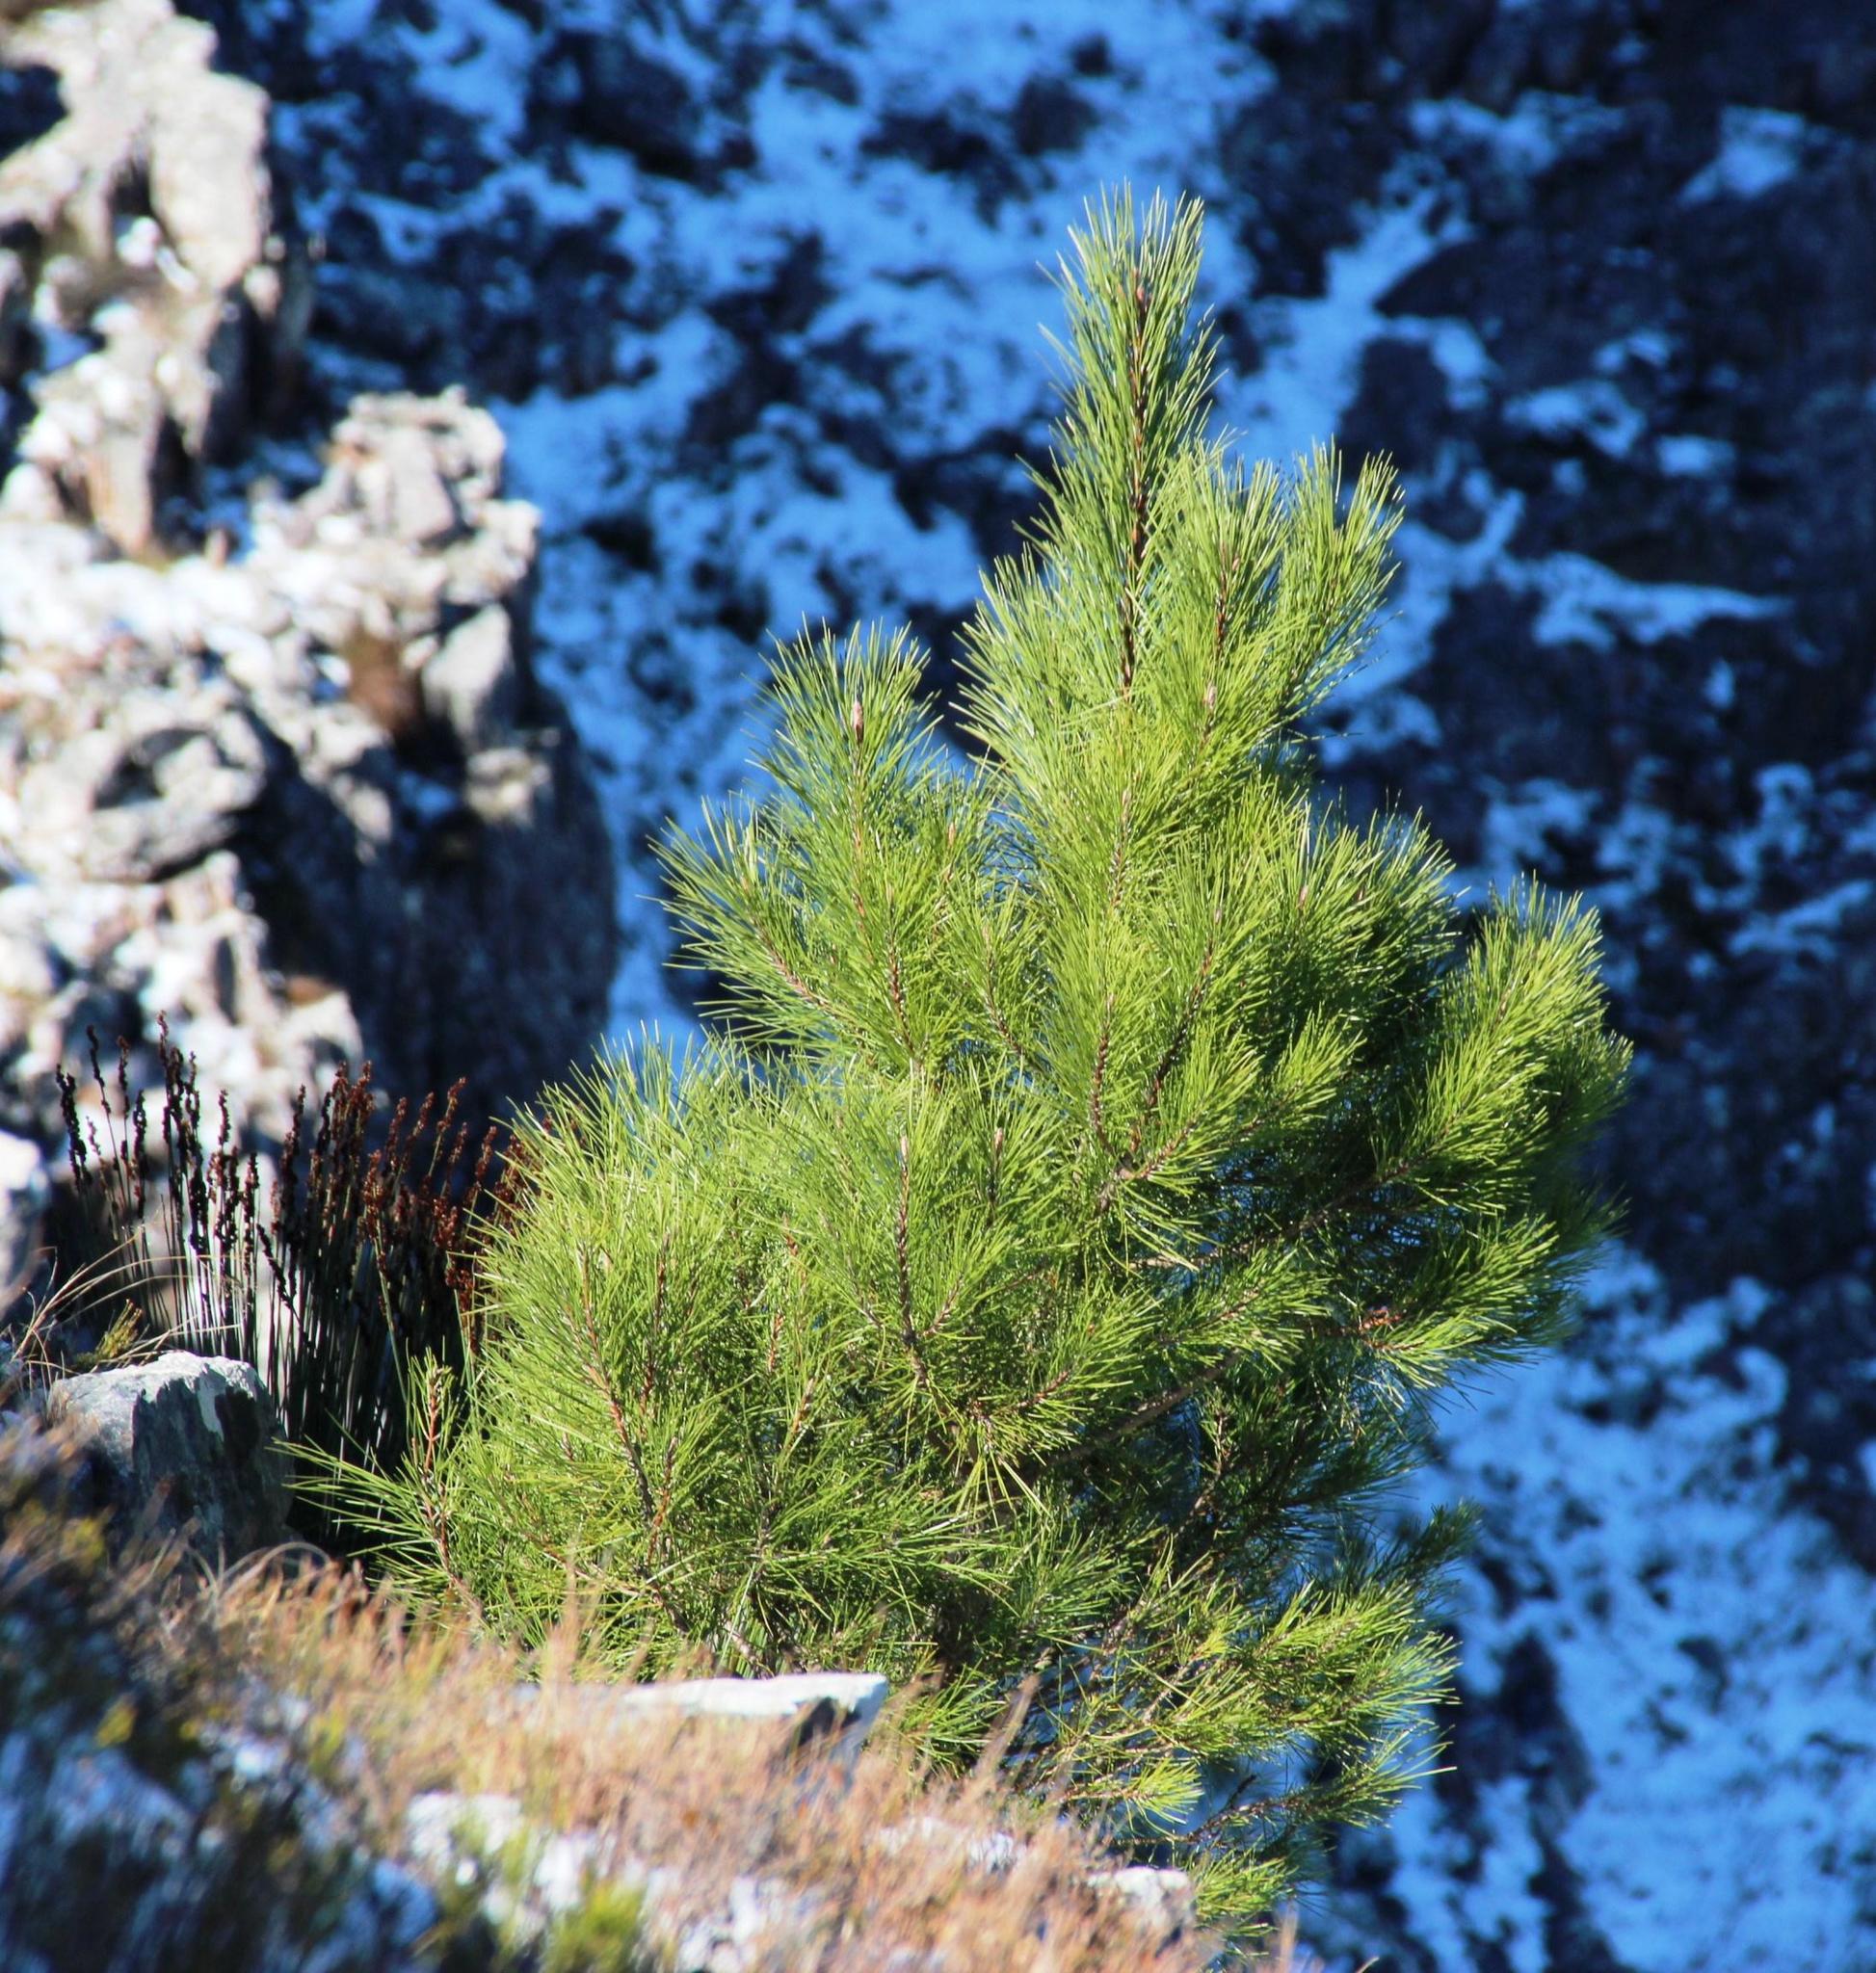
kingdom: Plantae
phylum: Tracheophyta
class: Pinopsida
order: Pinales
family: Pinaceae
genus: Pinus
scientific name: Pinus pinaster
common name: Maritime pine
